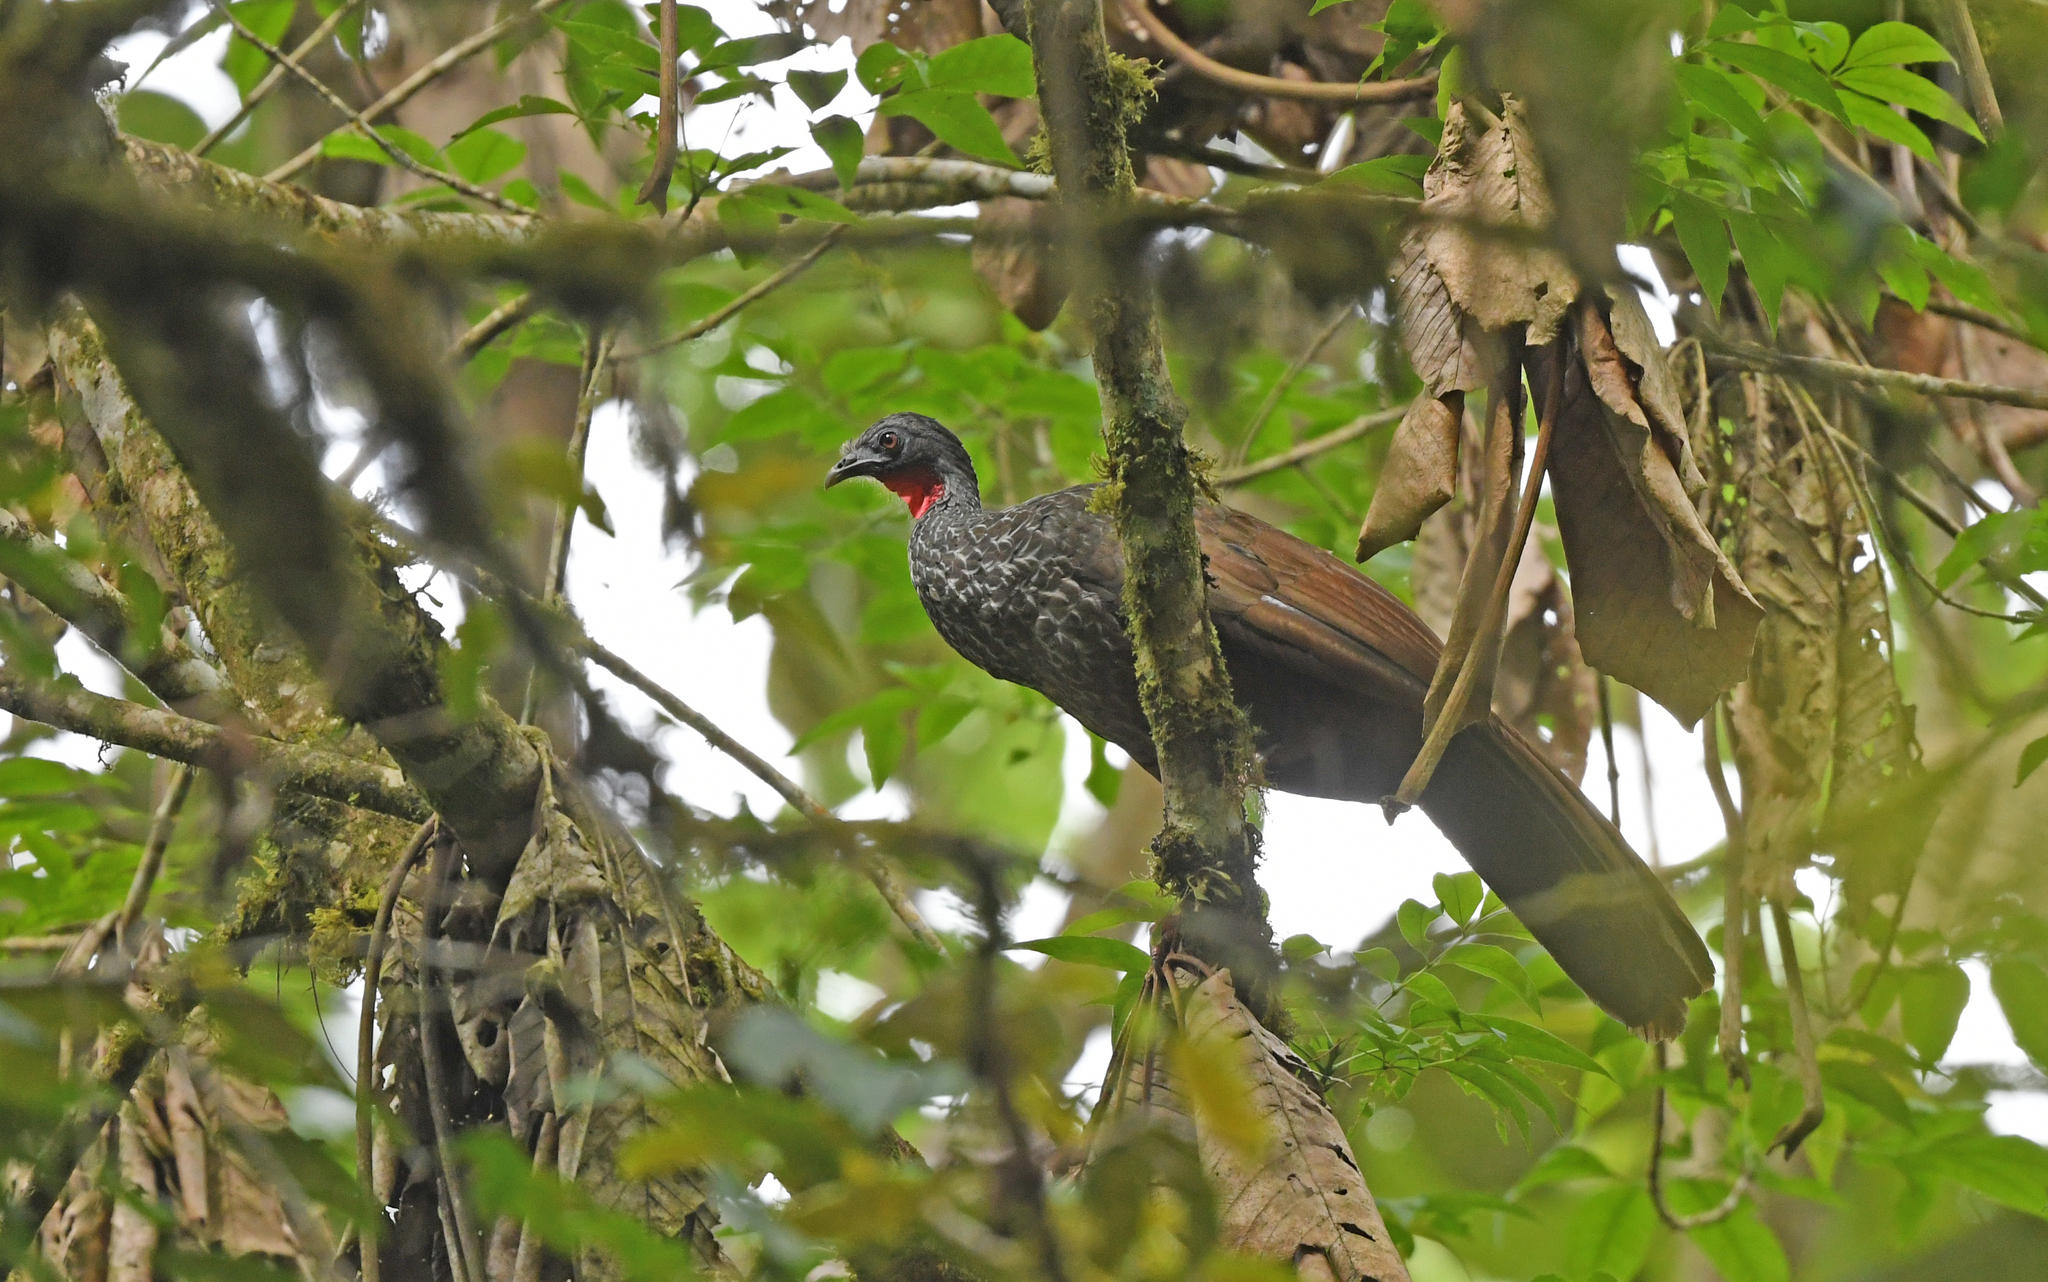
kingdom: Animalia
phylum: Chordata
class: Aves
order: Galliformes
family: Cracidae
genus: Penelope
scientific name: Penelope perspicax
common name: Cauca guan
